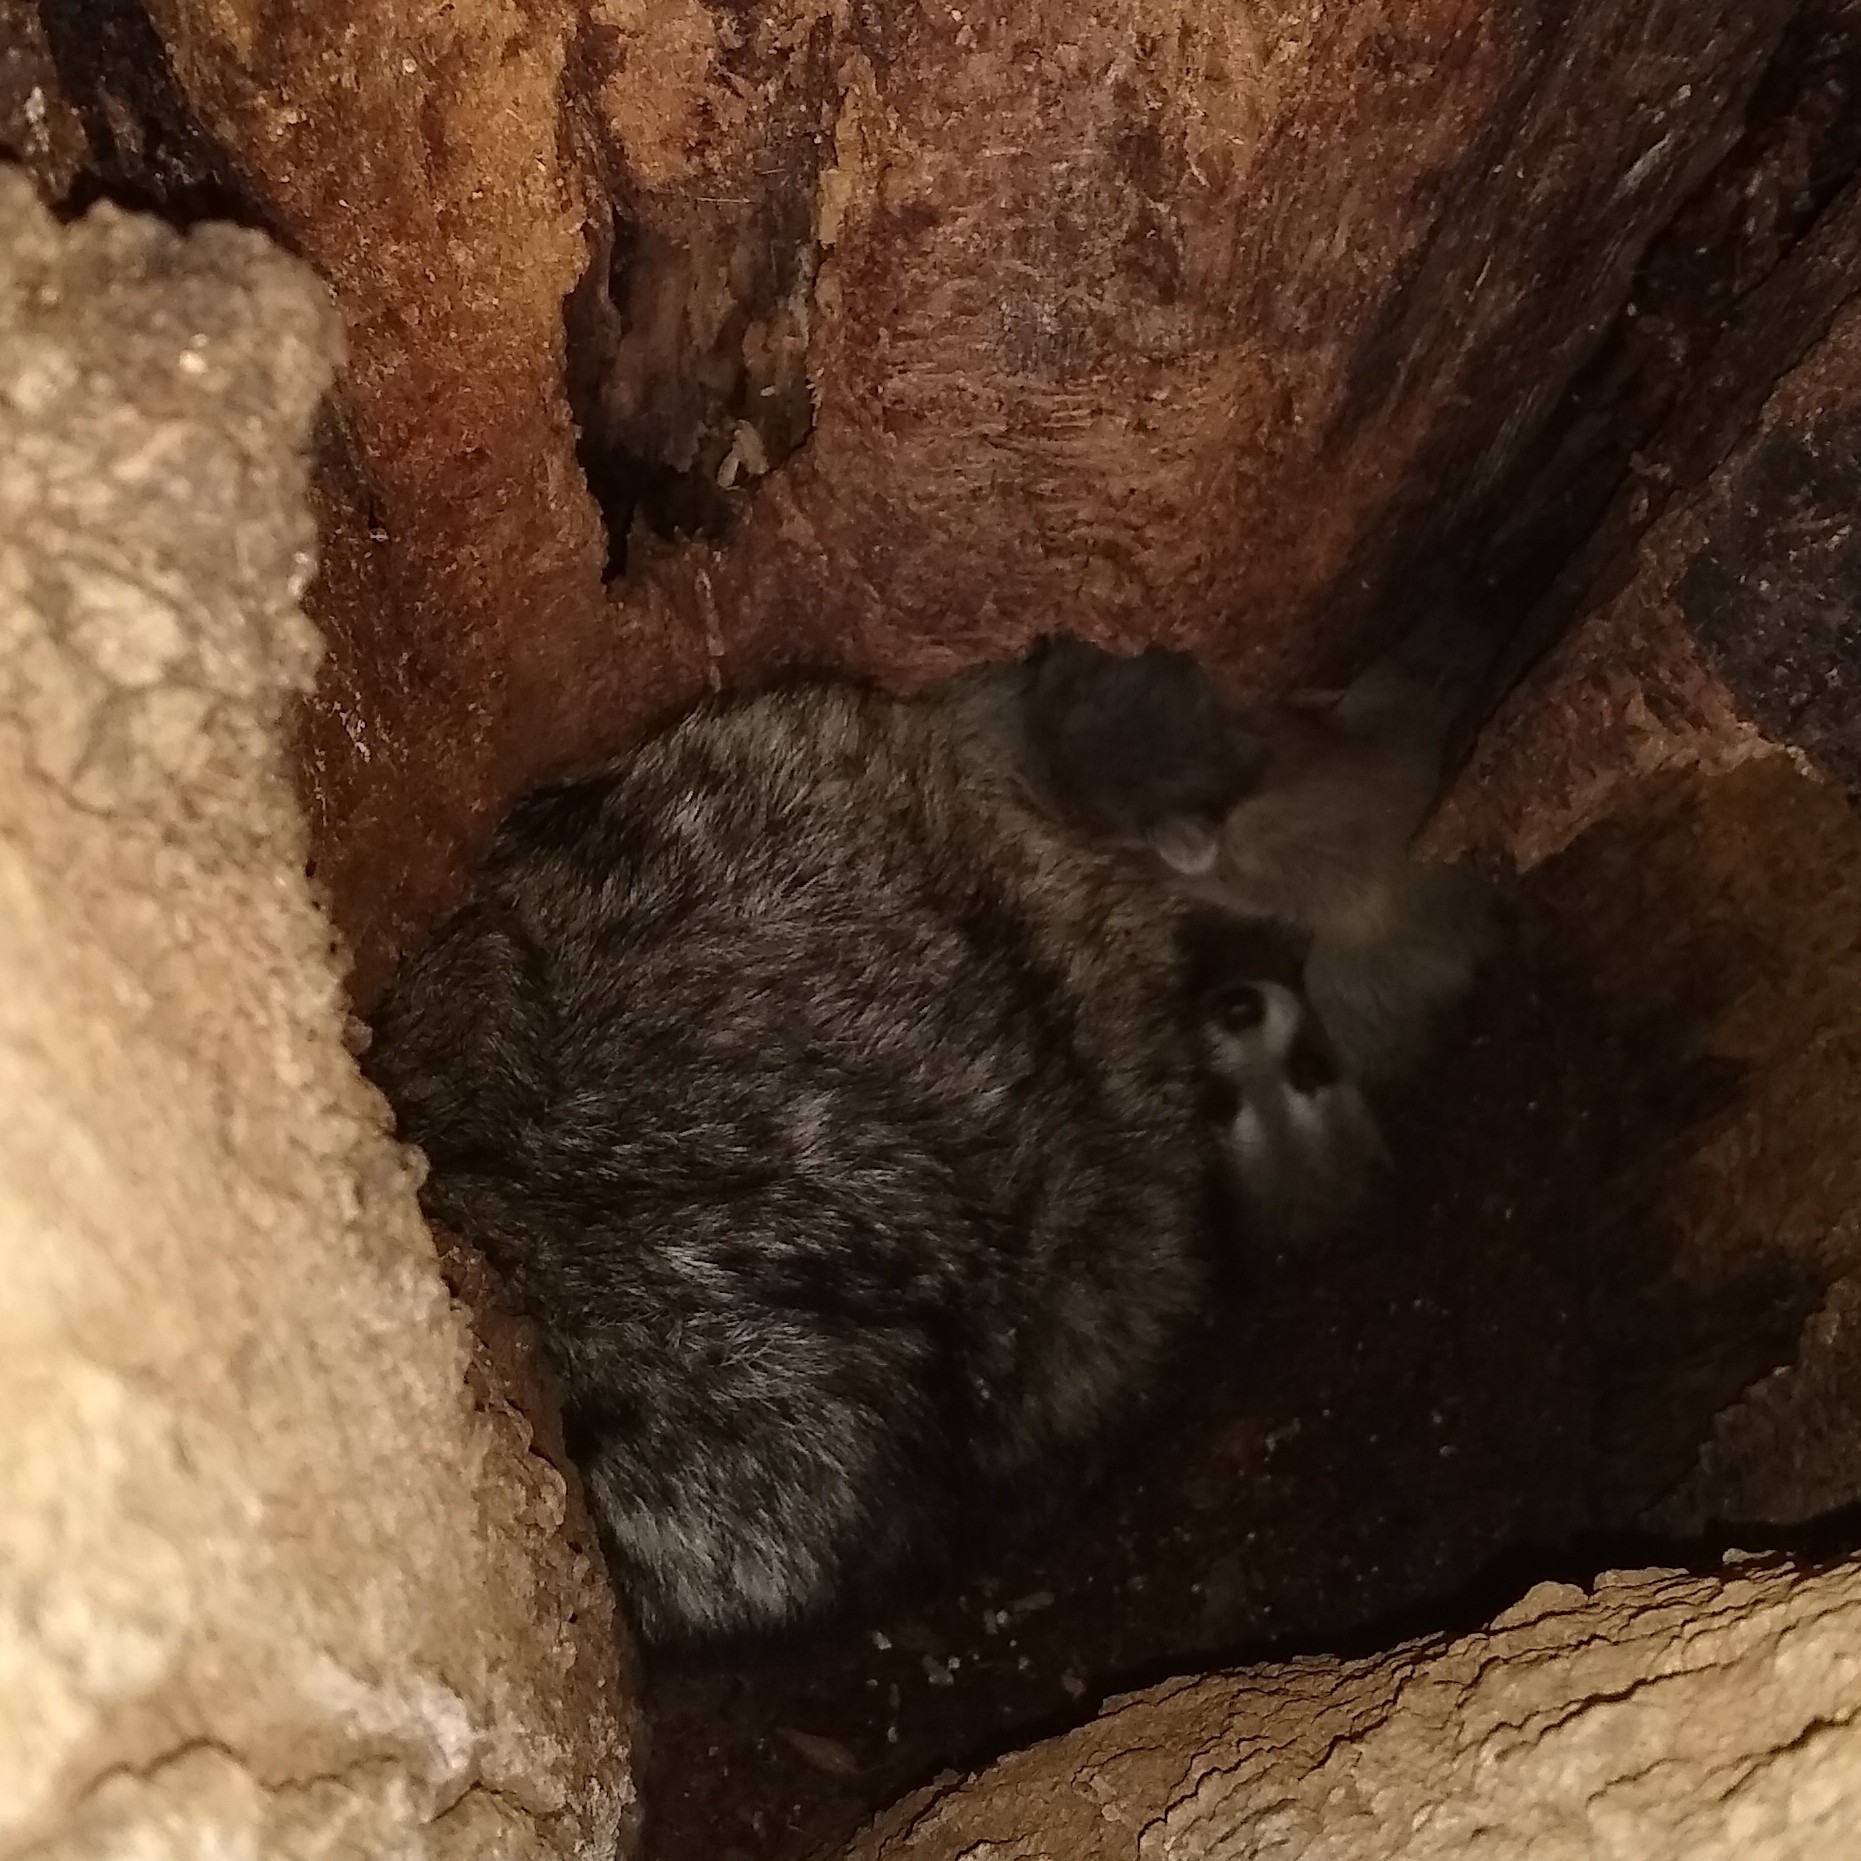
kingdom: Animalia
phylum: Chordata
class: Mammalia
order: Carnivora
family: Procyonidae
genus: Procyon
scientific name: Procyon lotor
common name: Raccoon
